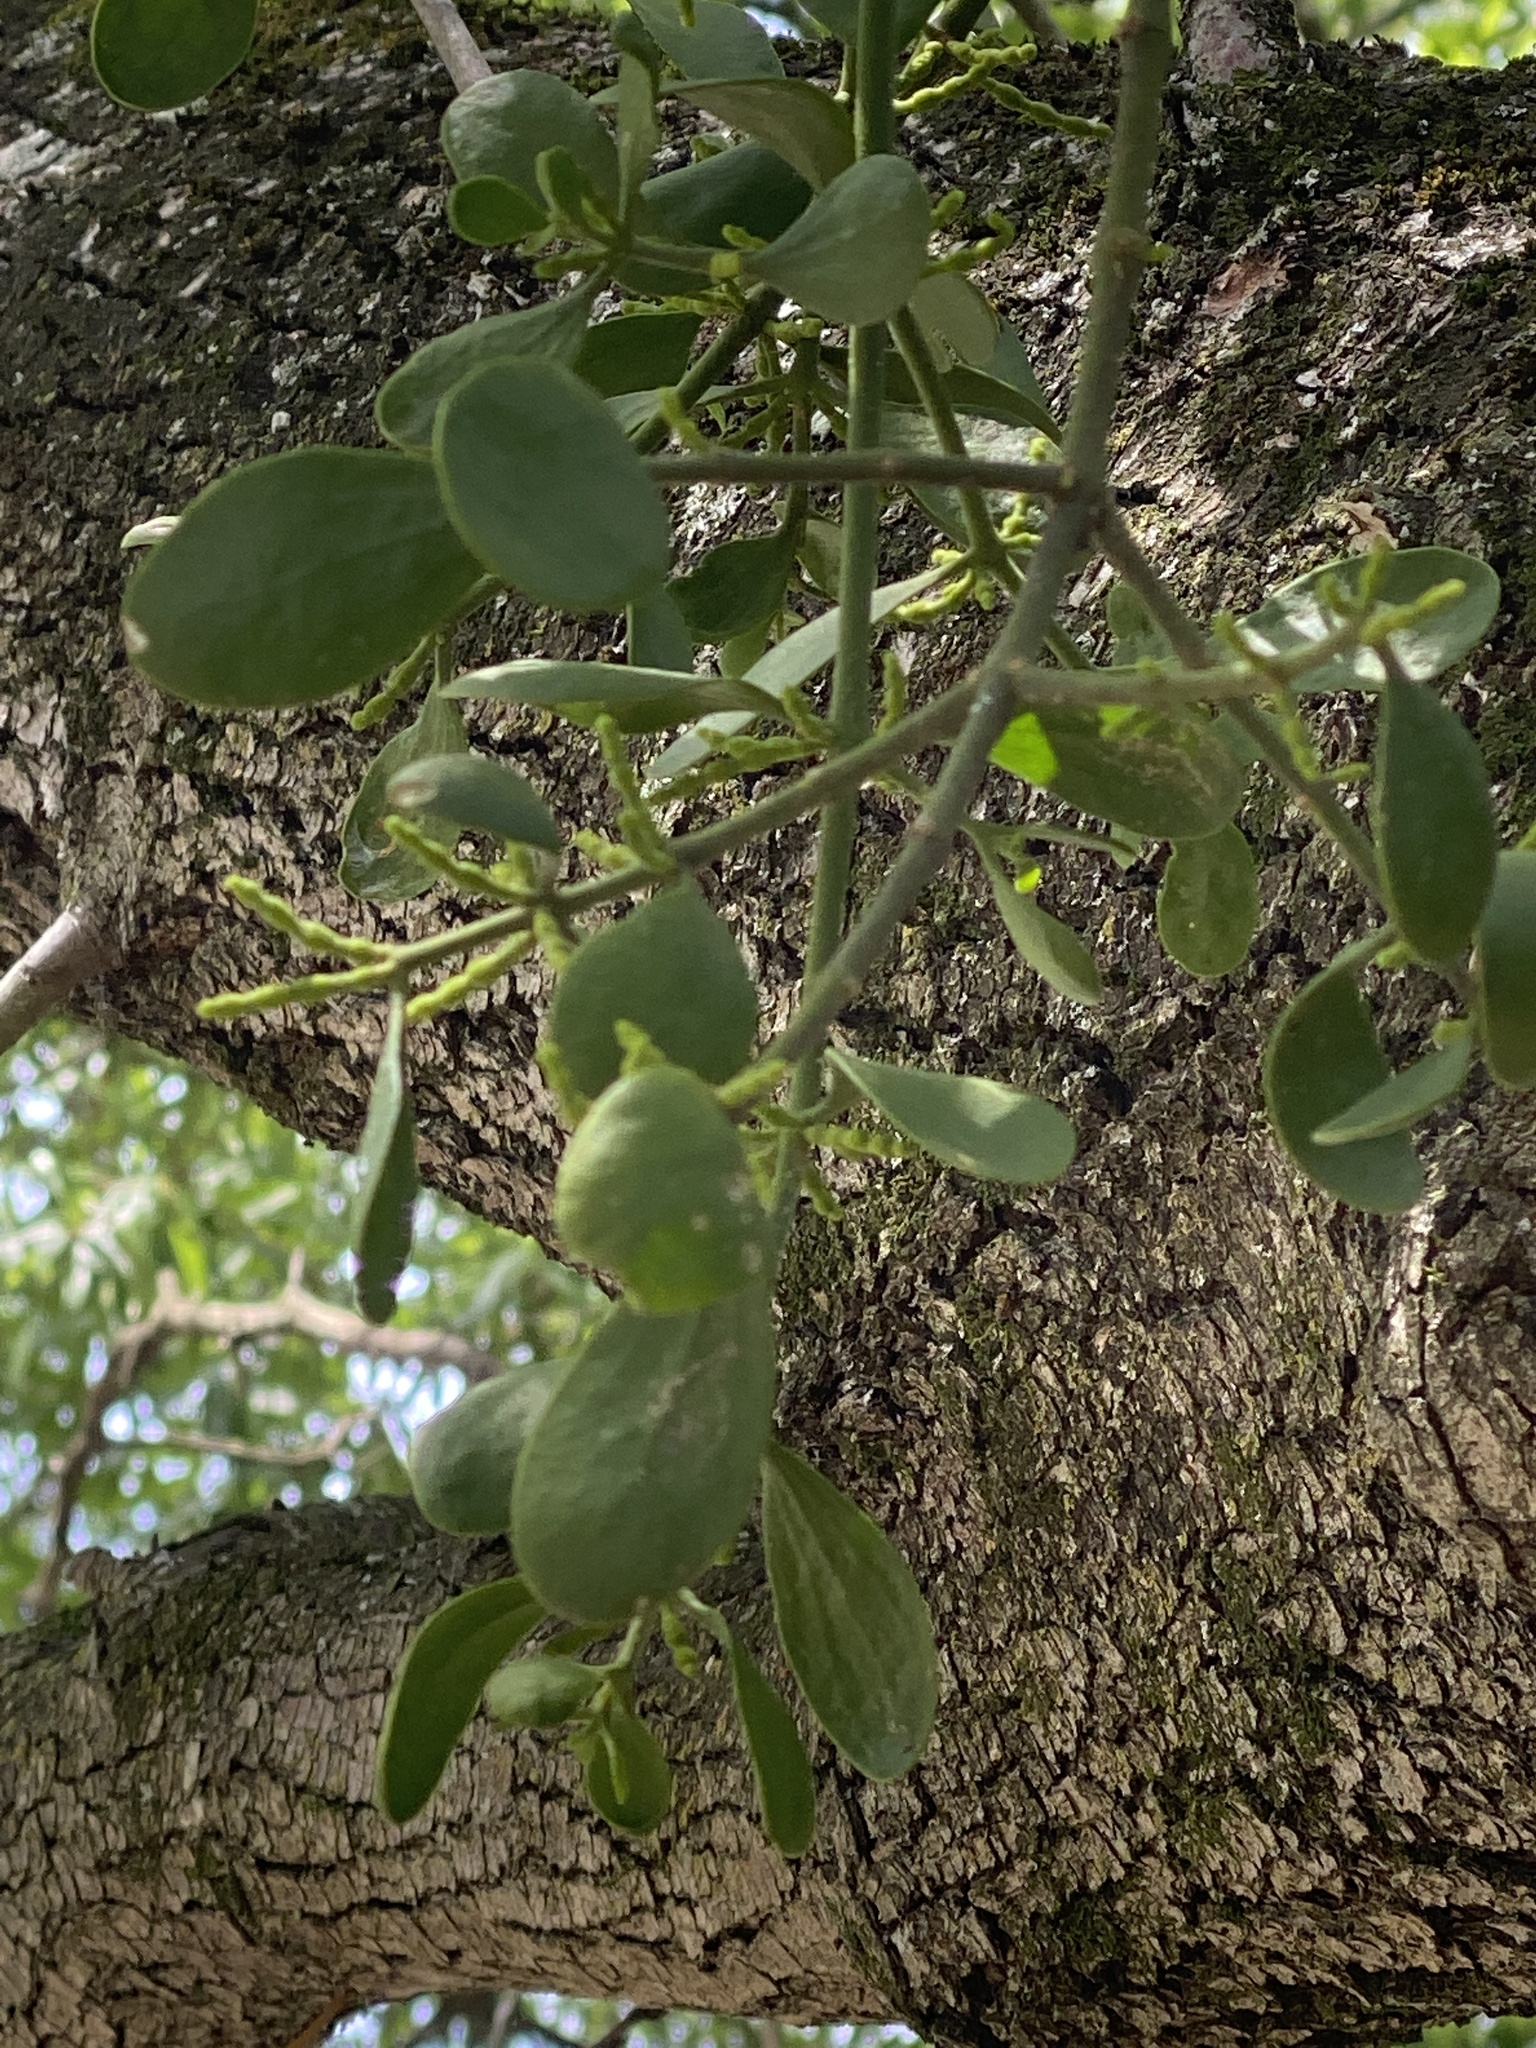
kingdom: Plantae
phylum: Tracheophyta
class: Magnoliopsida
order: Santalales
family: Viscaceae
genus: Phoradendron
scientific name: Phoradendron leucarpum
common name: Pacific mistletoe
